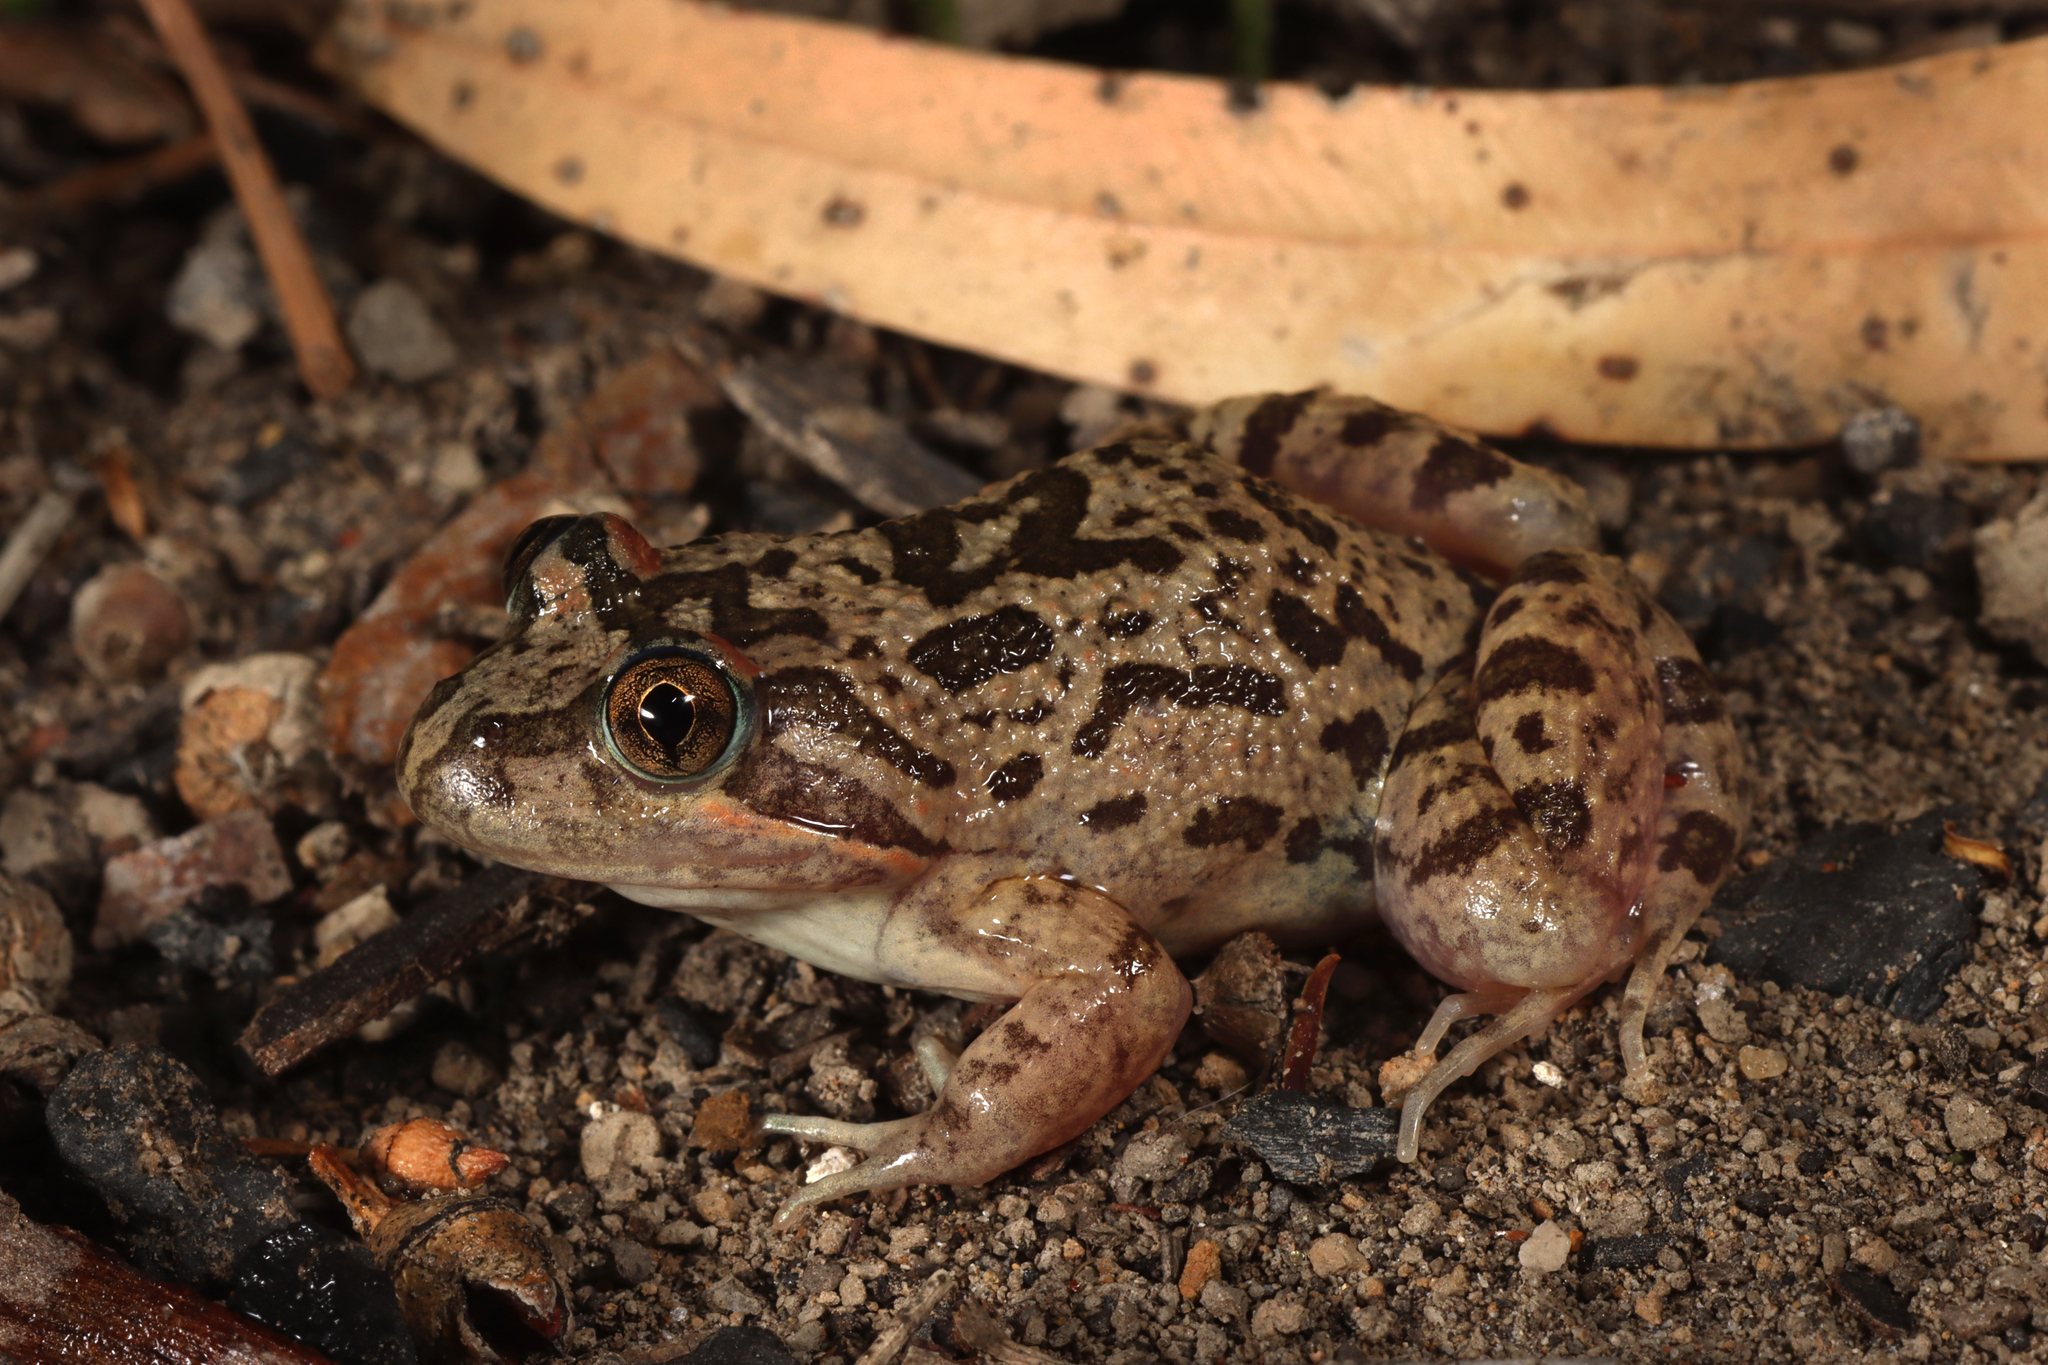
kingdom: Animalia
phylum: Chordata
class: Amphibia
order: Anura
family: Limnodynastidae
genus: Limnodynastes
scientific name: Limnodynastes fletcheri
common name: Barking frog
